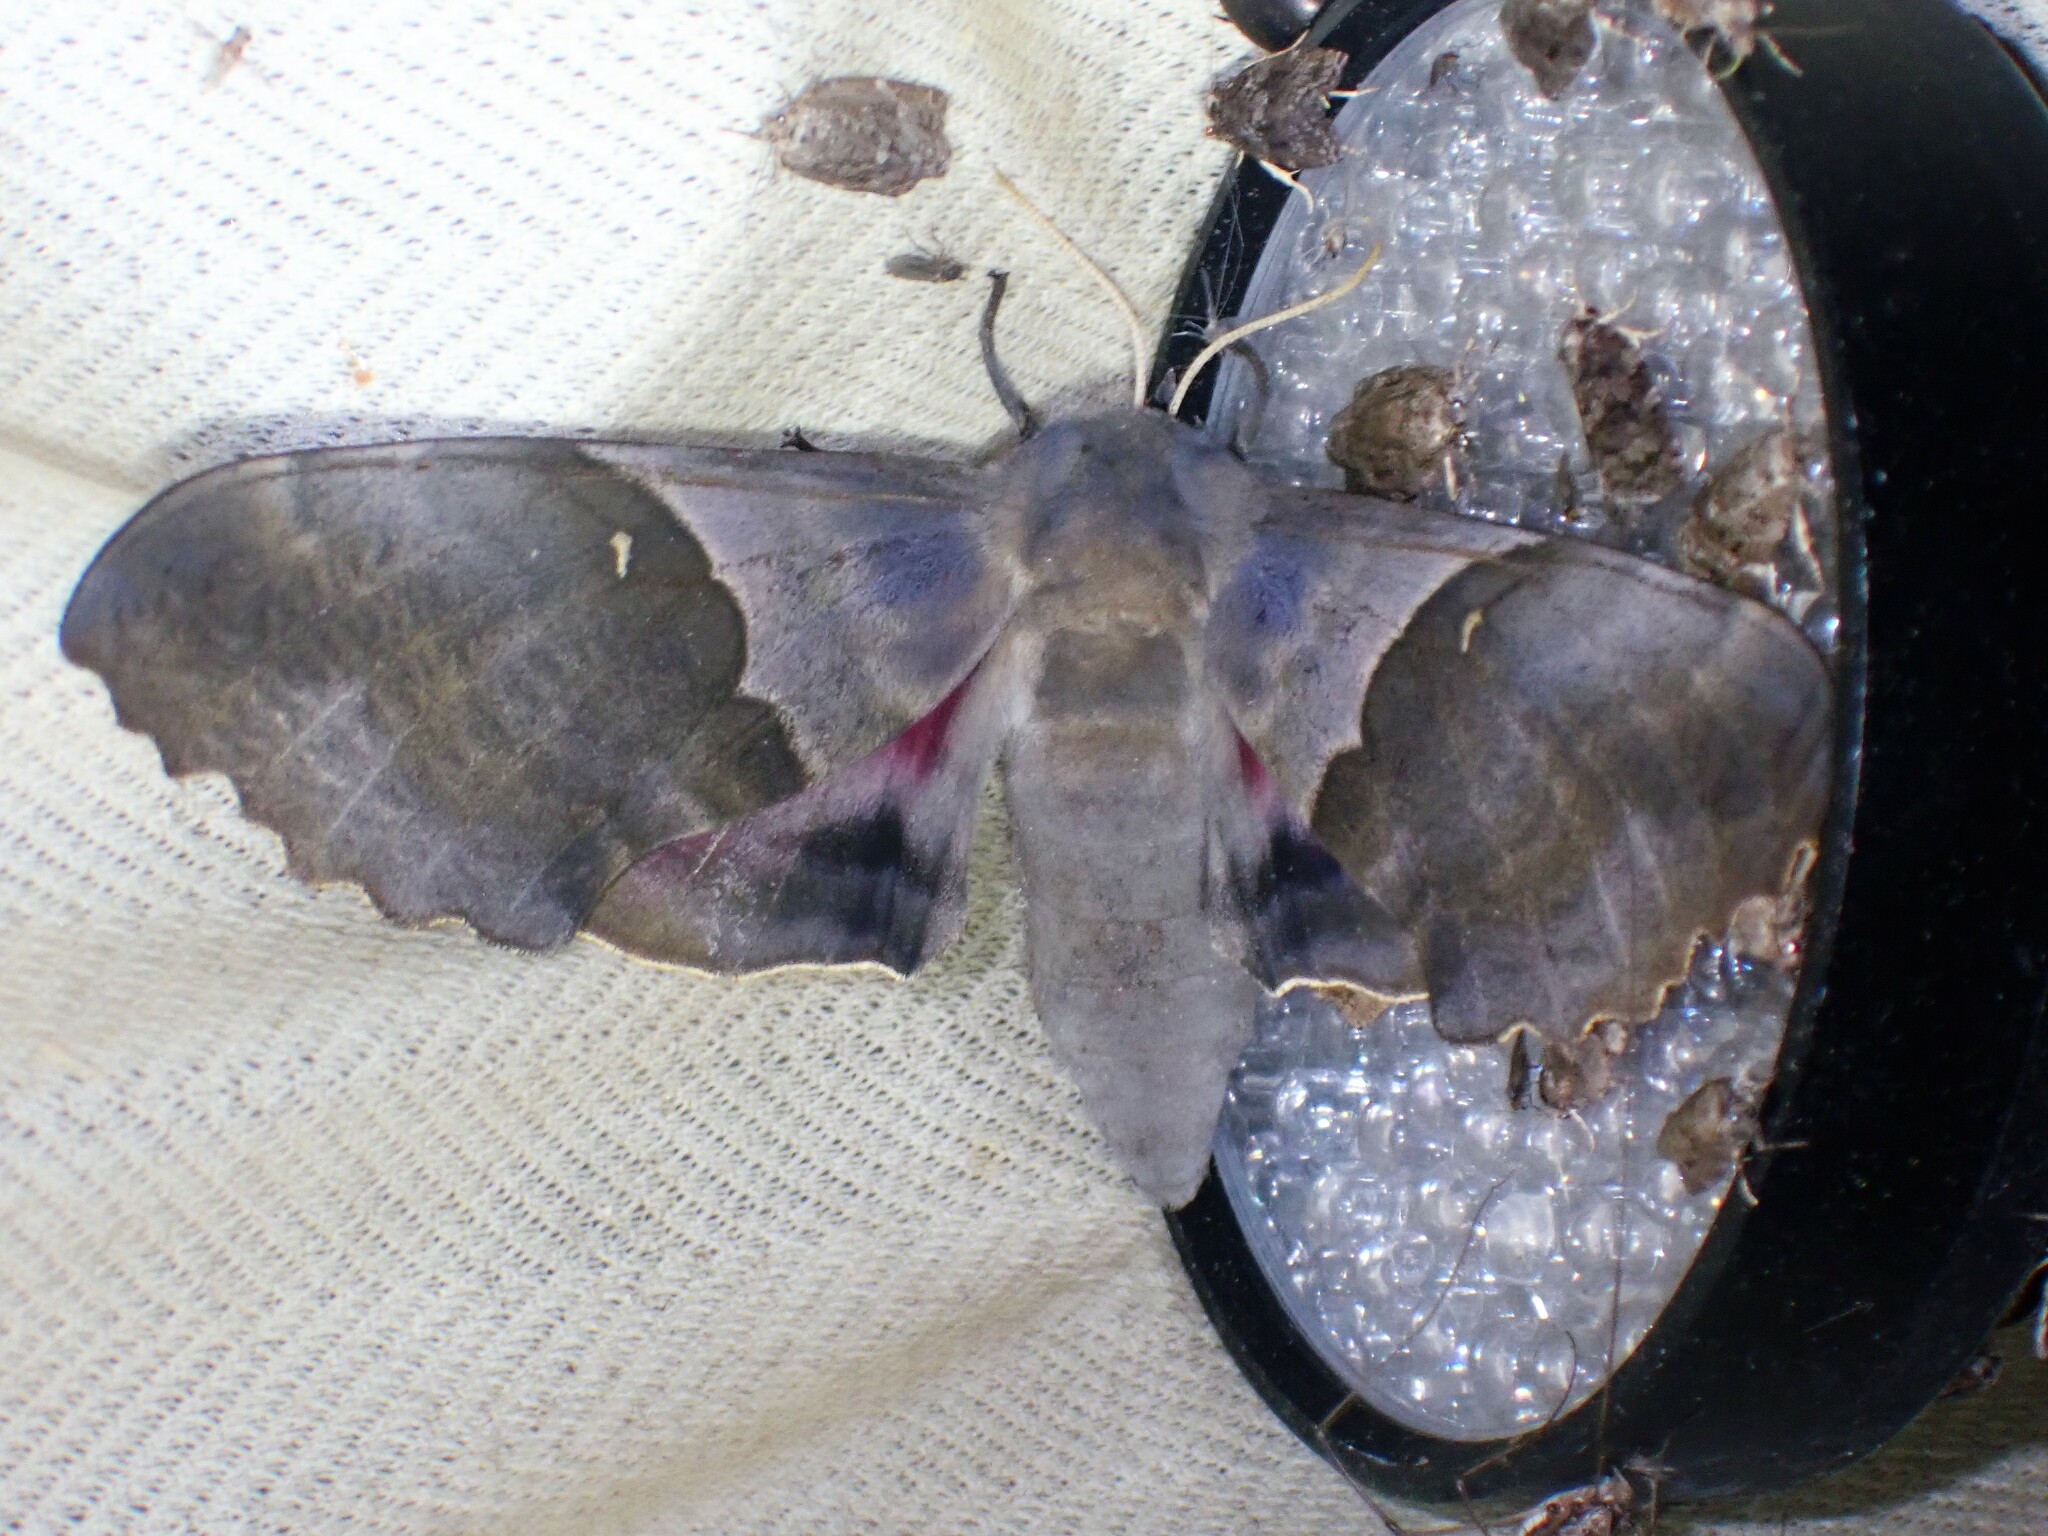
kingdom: Animalia
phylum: Arthropoda
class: Insecta
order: Lepidoptera
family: Sphingidae
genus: Pachysphinx
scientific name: Pachysphinx modesta
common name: Big poplar sphinx
